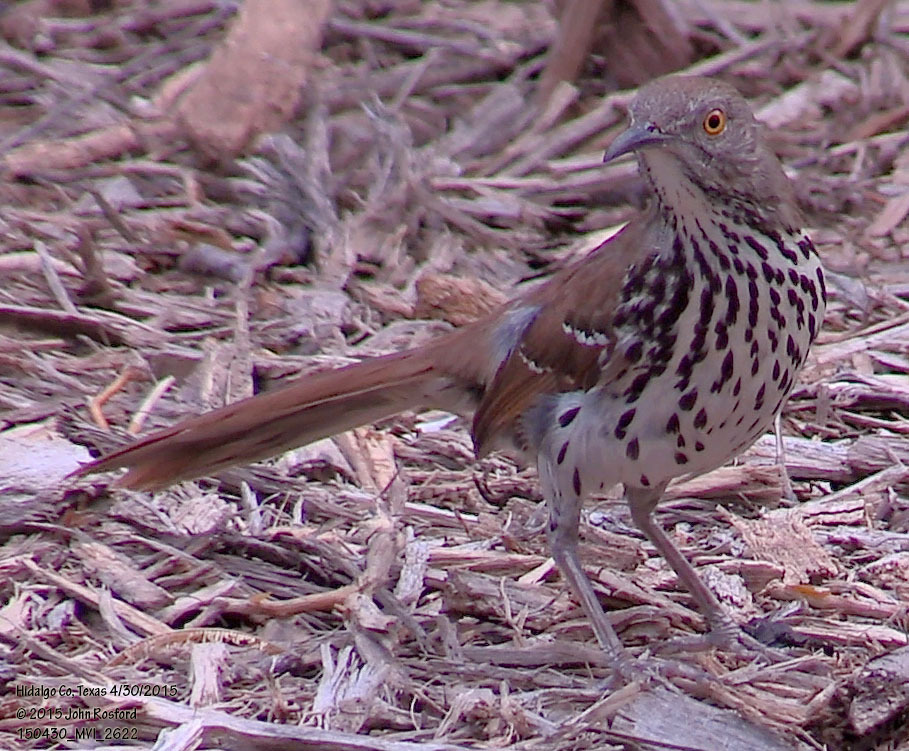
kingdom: Animalia
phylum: Chordata
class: Aves
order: Passeriformes
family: Mimidae
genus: Toxostoma
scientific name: Toxostoma longirostre
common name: Long-billed thrasher
